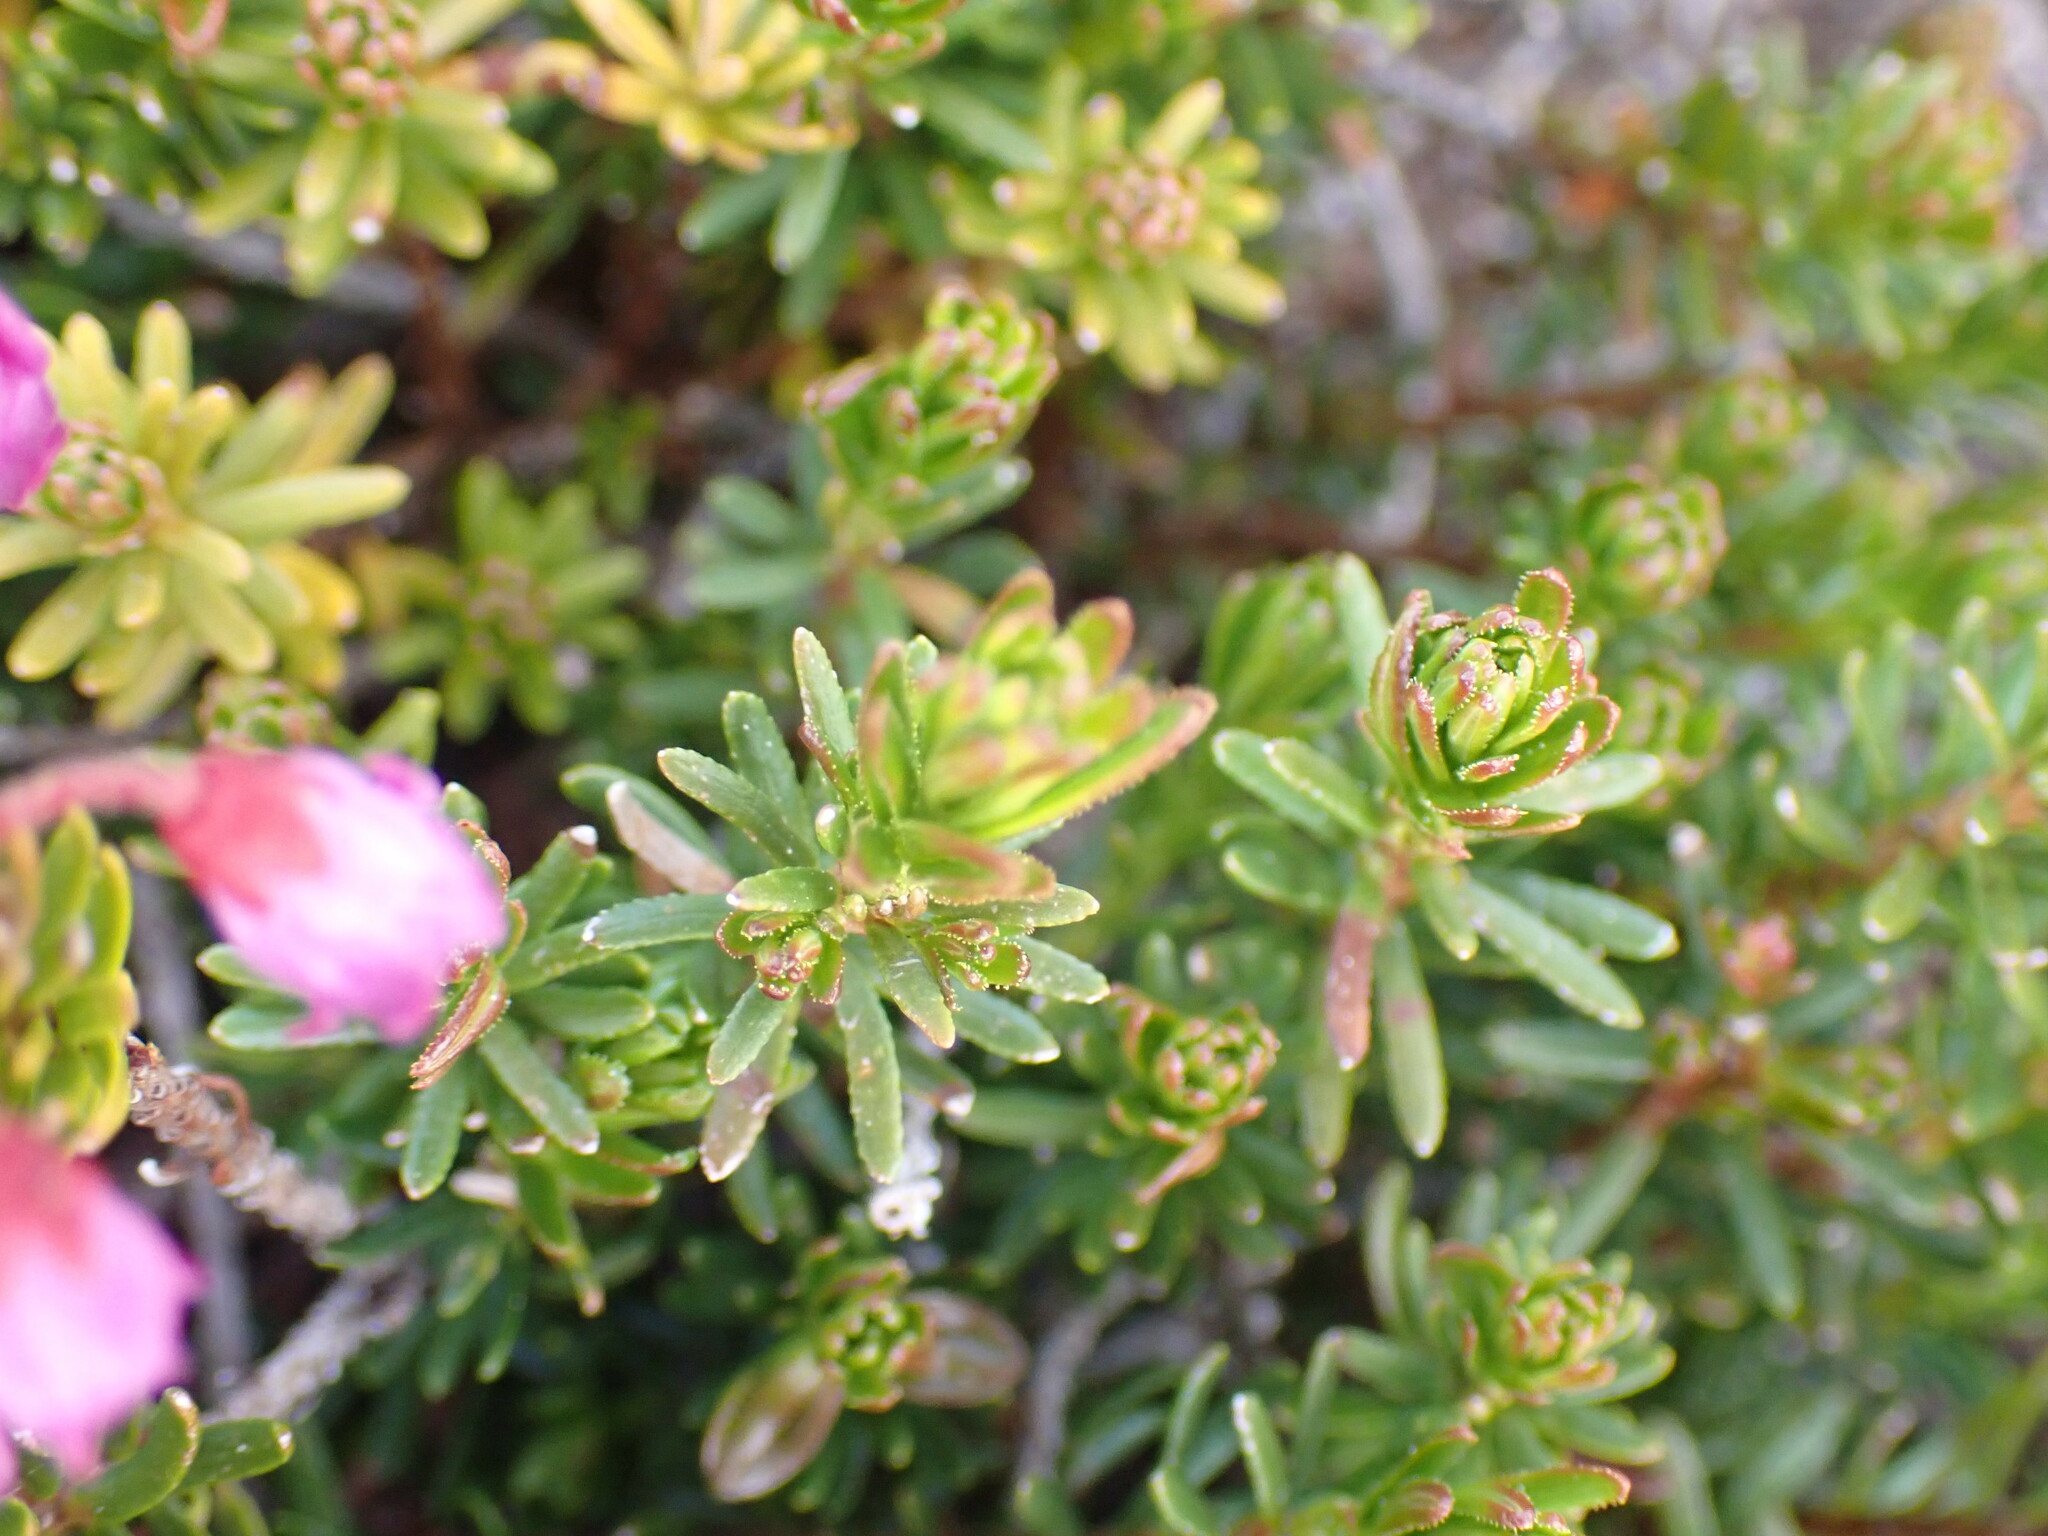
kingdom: Plantae
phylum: Tracheophyta
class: Magnoliopsida
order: Ericales
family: Ericaceae
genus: Phyllodoce
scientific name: Phyllodoce empetriformis
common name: Pink mountain heather
